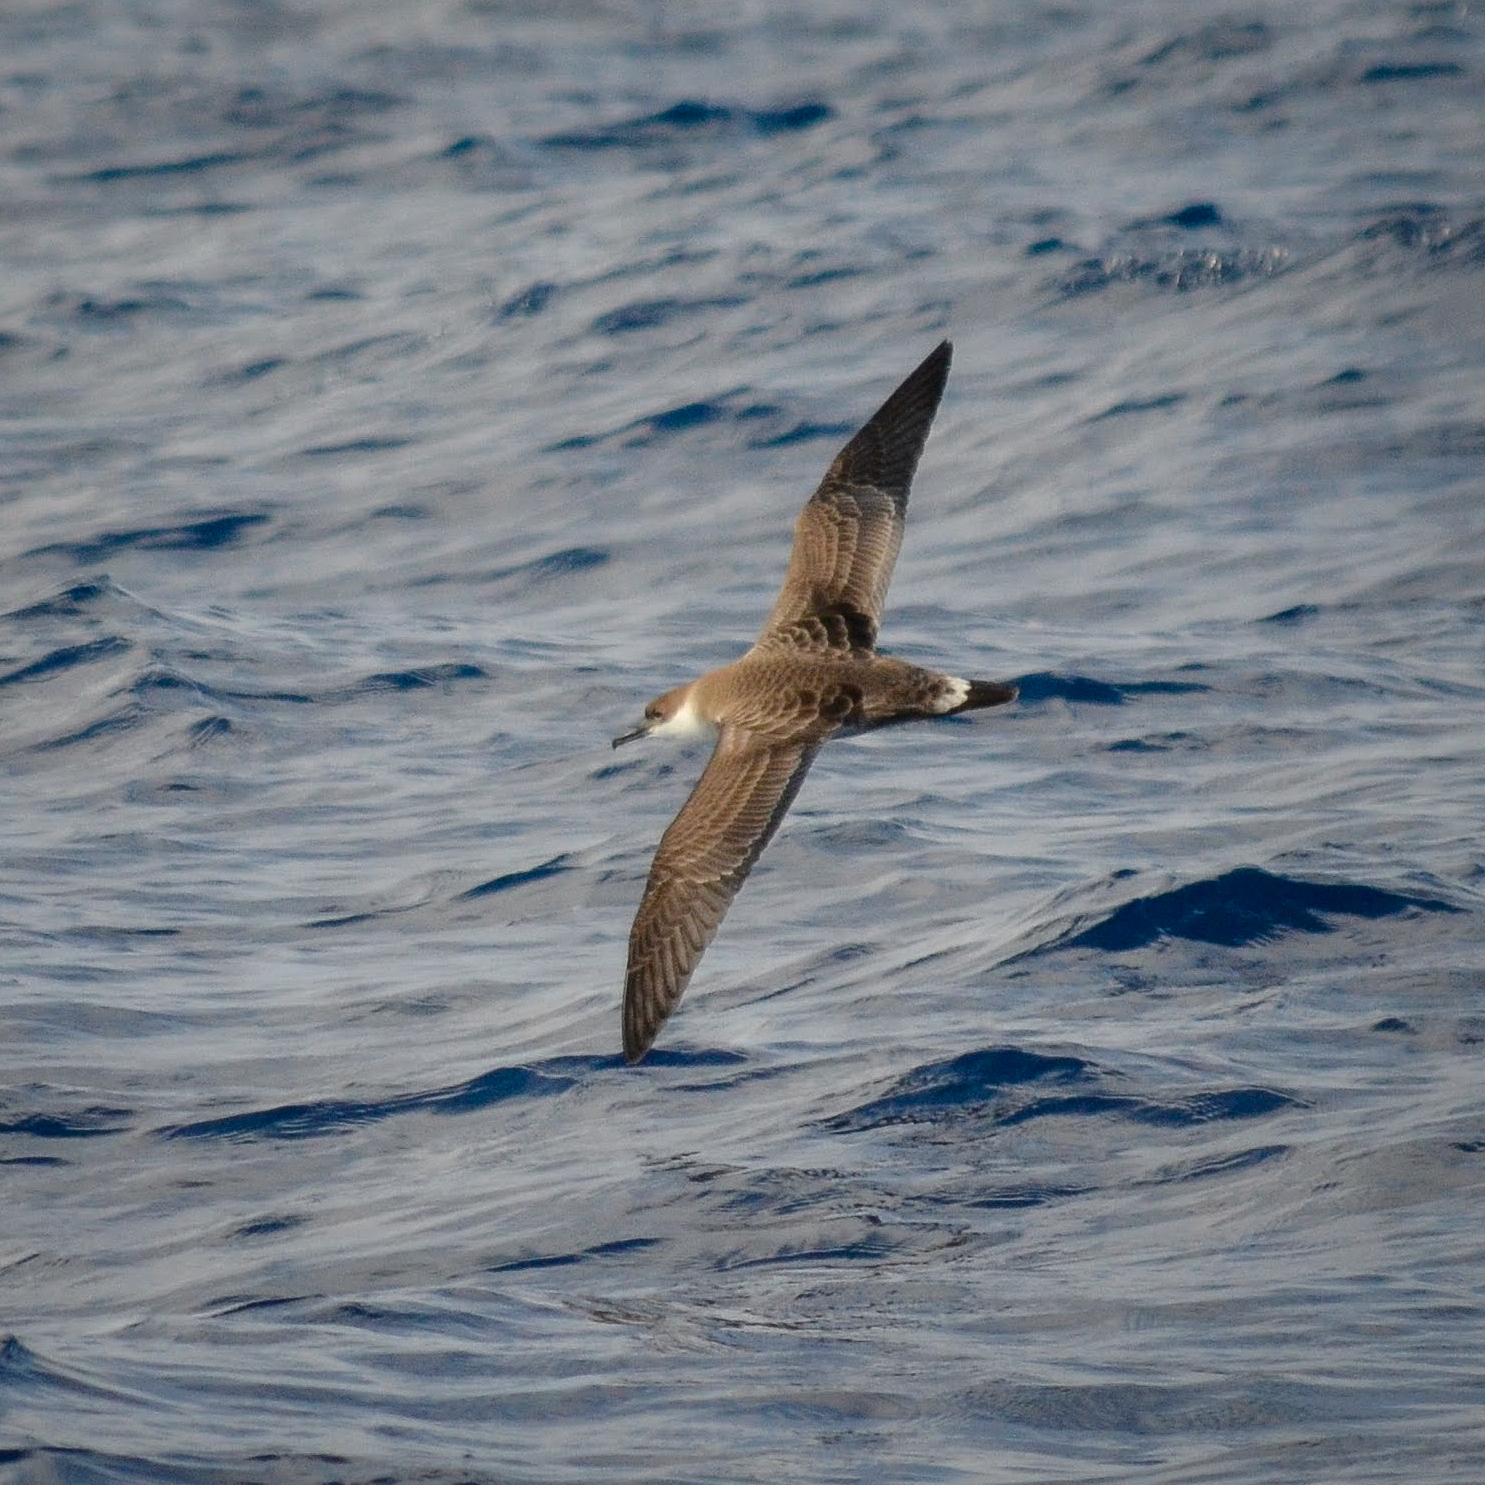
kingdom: Animalia
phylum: Chordata
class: Aves
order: Procellariiformes
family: Procellariidae
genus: Puffinus
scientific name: Puffinus gravis
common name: Great shearwater
